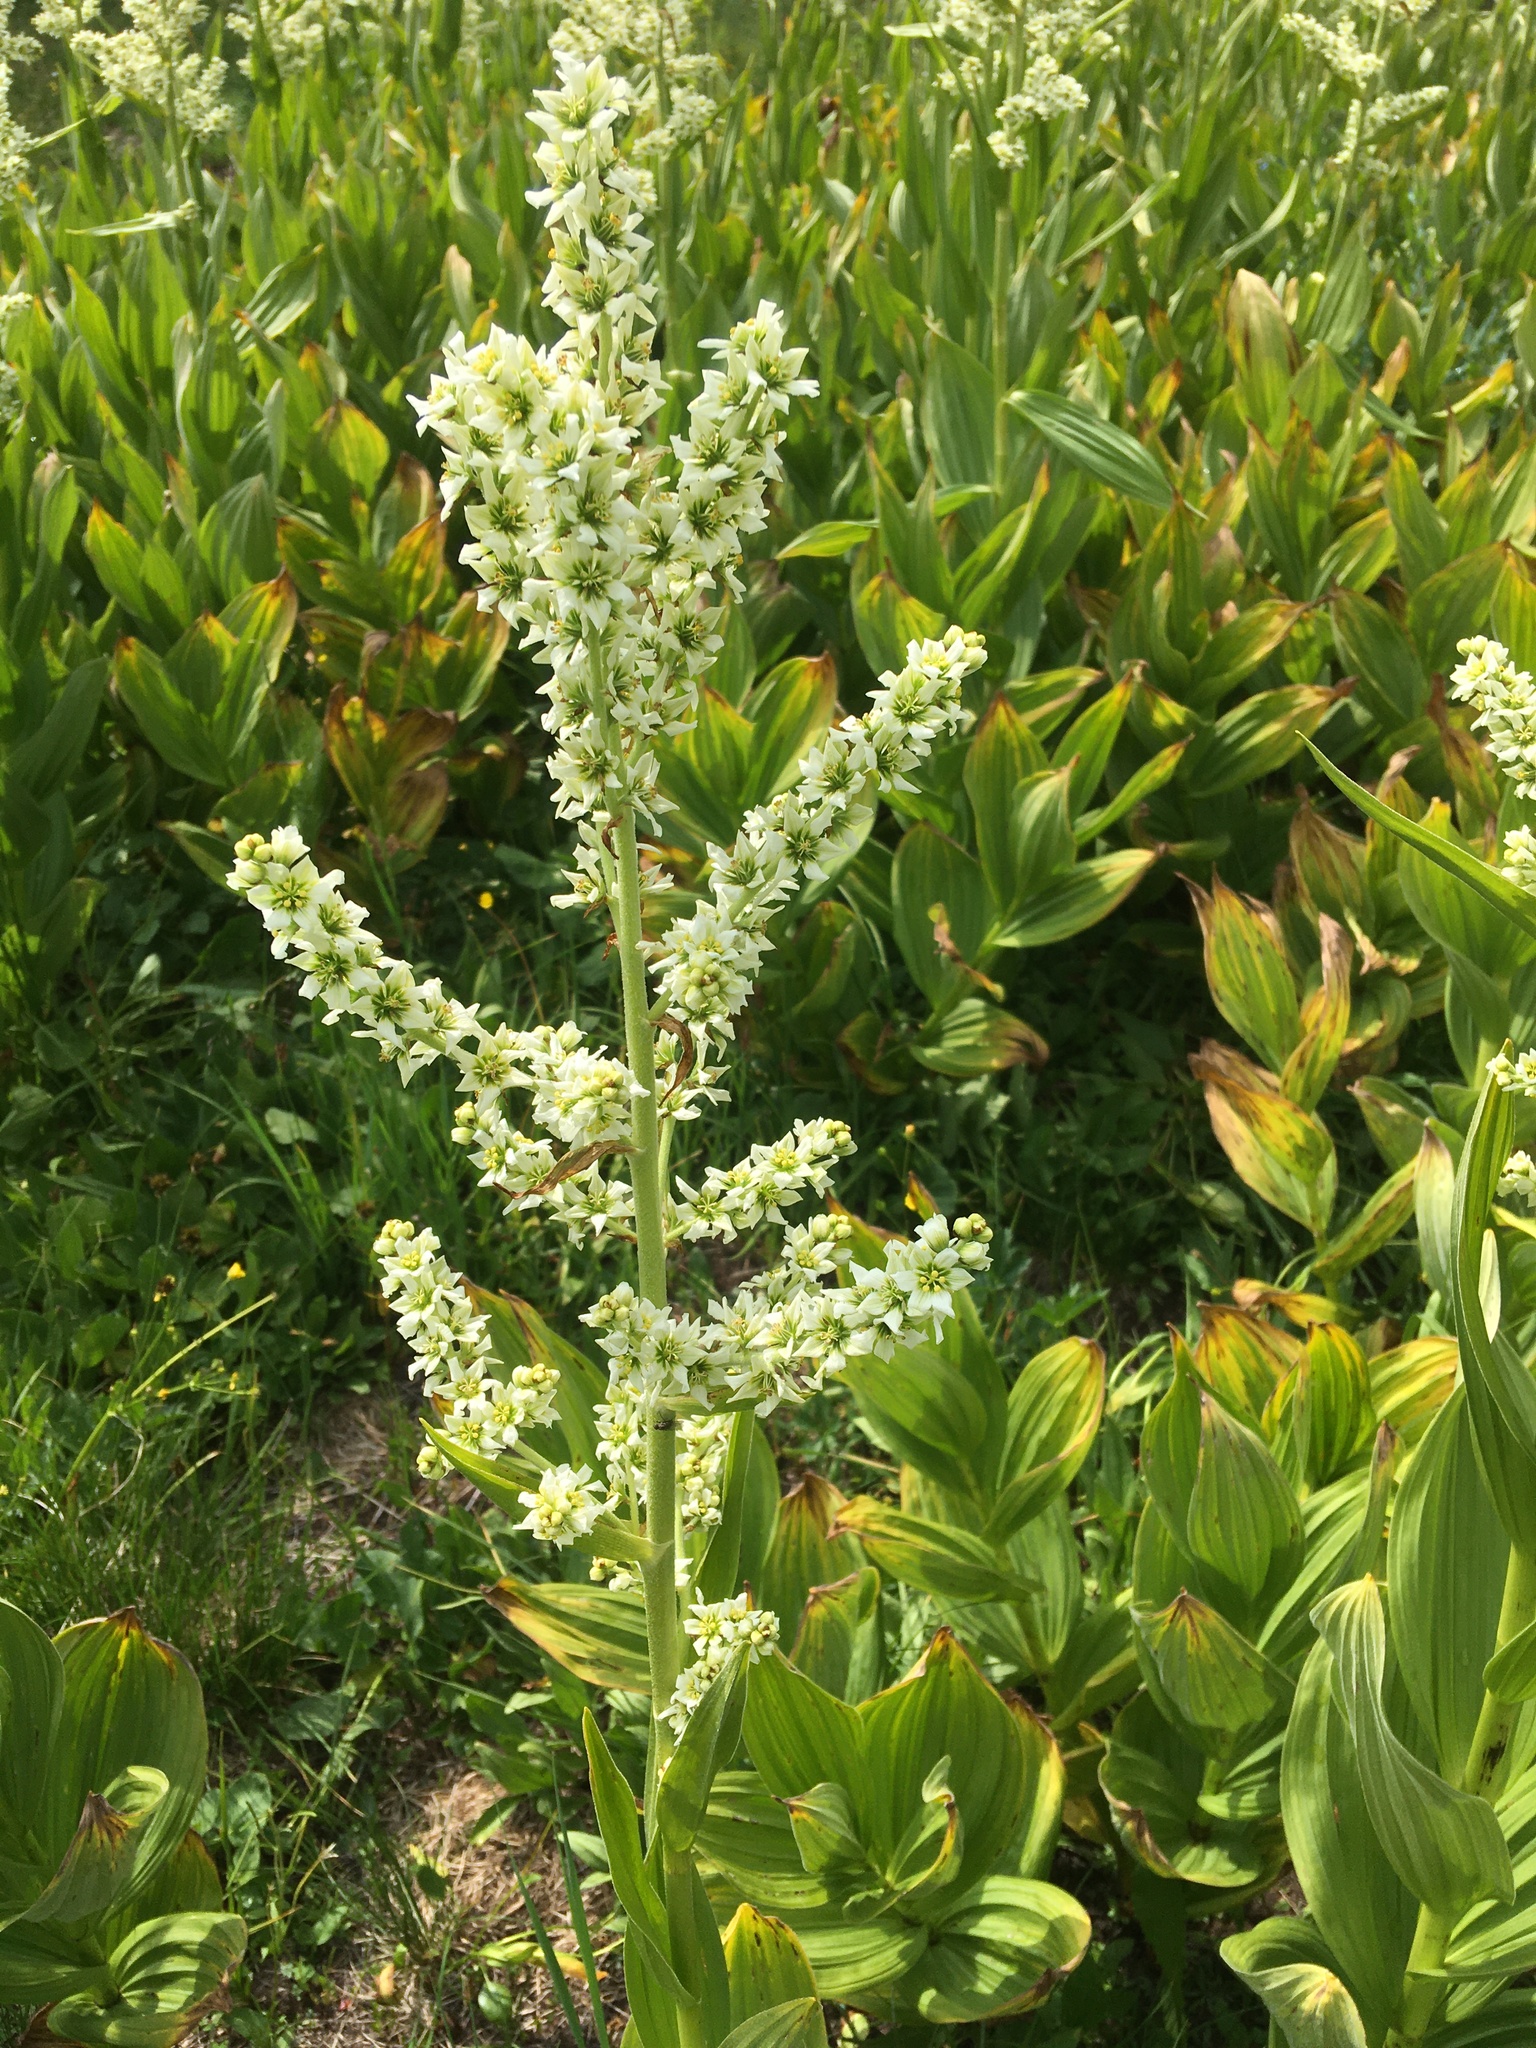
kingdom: Plantae
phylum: Tracheophyta
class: Liliopsida
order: Liliales
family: Melanthiaceae
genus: Veratrum
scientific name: Veratrum californicum
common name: California veratrum
